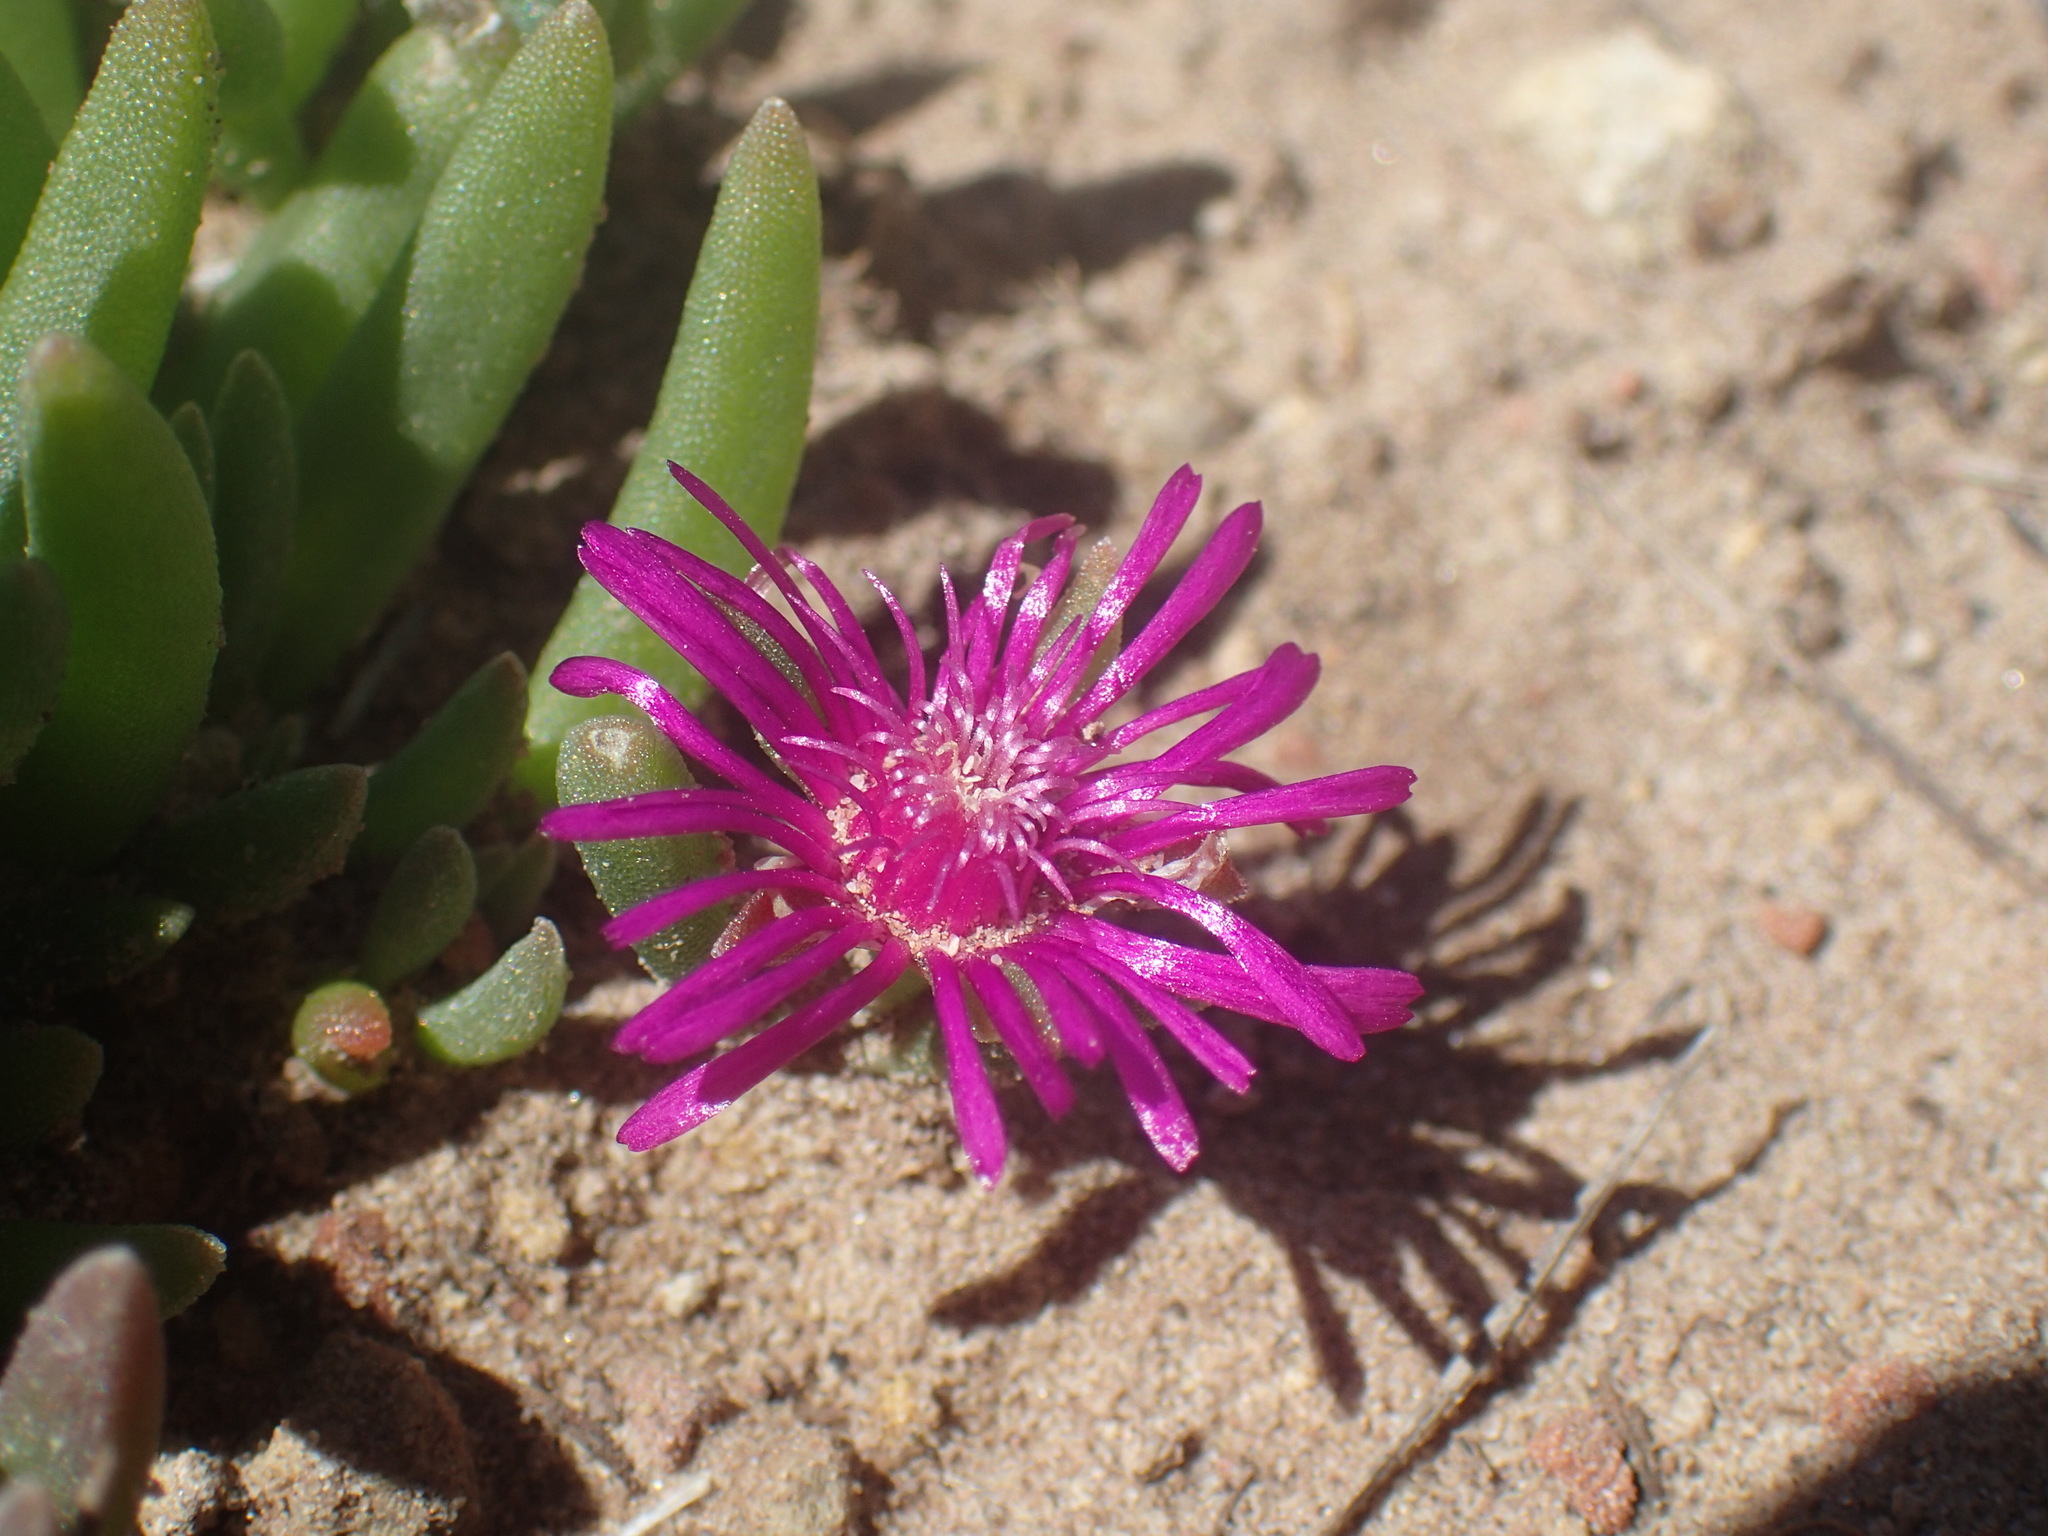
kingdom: Plantae
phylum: Tracheophyta
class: Magnoliopsida
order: Caryophyllales
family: Aizoaceae
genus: Delosperma
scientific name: Delosperma obtusum
